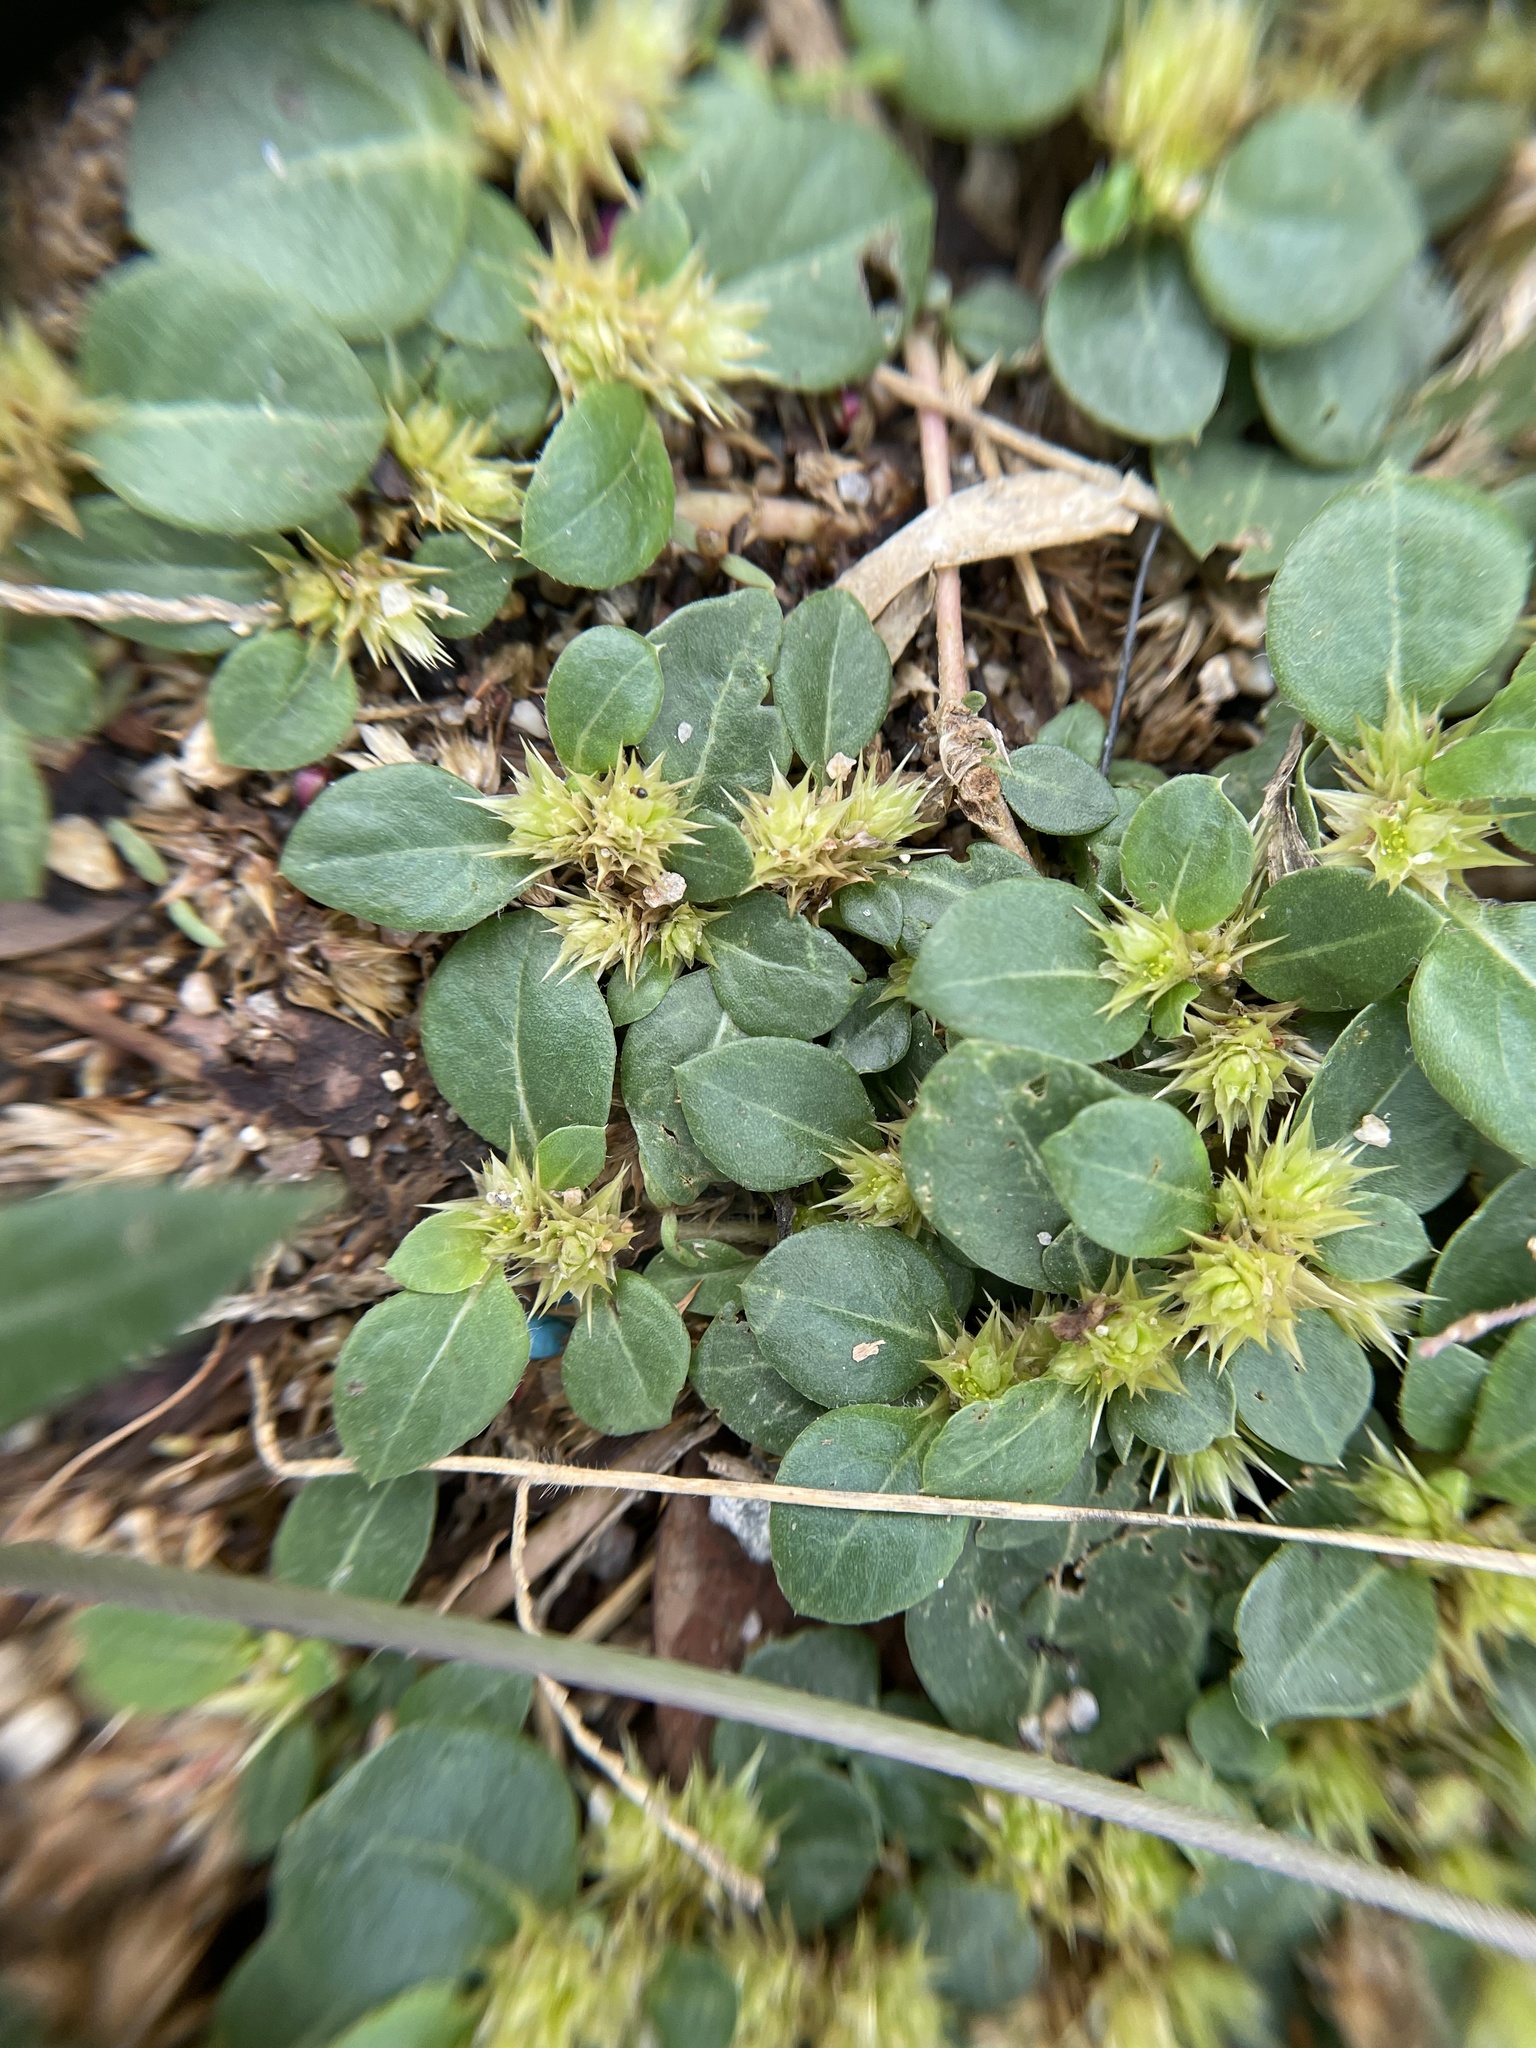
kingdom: Plantae
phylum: Tracheophyta
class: Magnoliopsida
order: Caryophyllales
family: Amaranthaceae
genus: Alternanthera
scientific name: Alternanthera pungens
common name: Khakiweed
